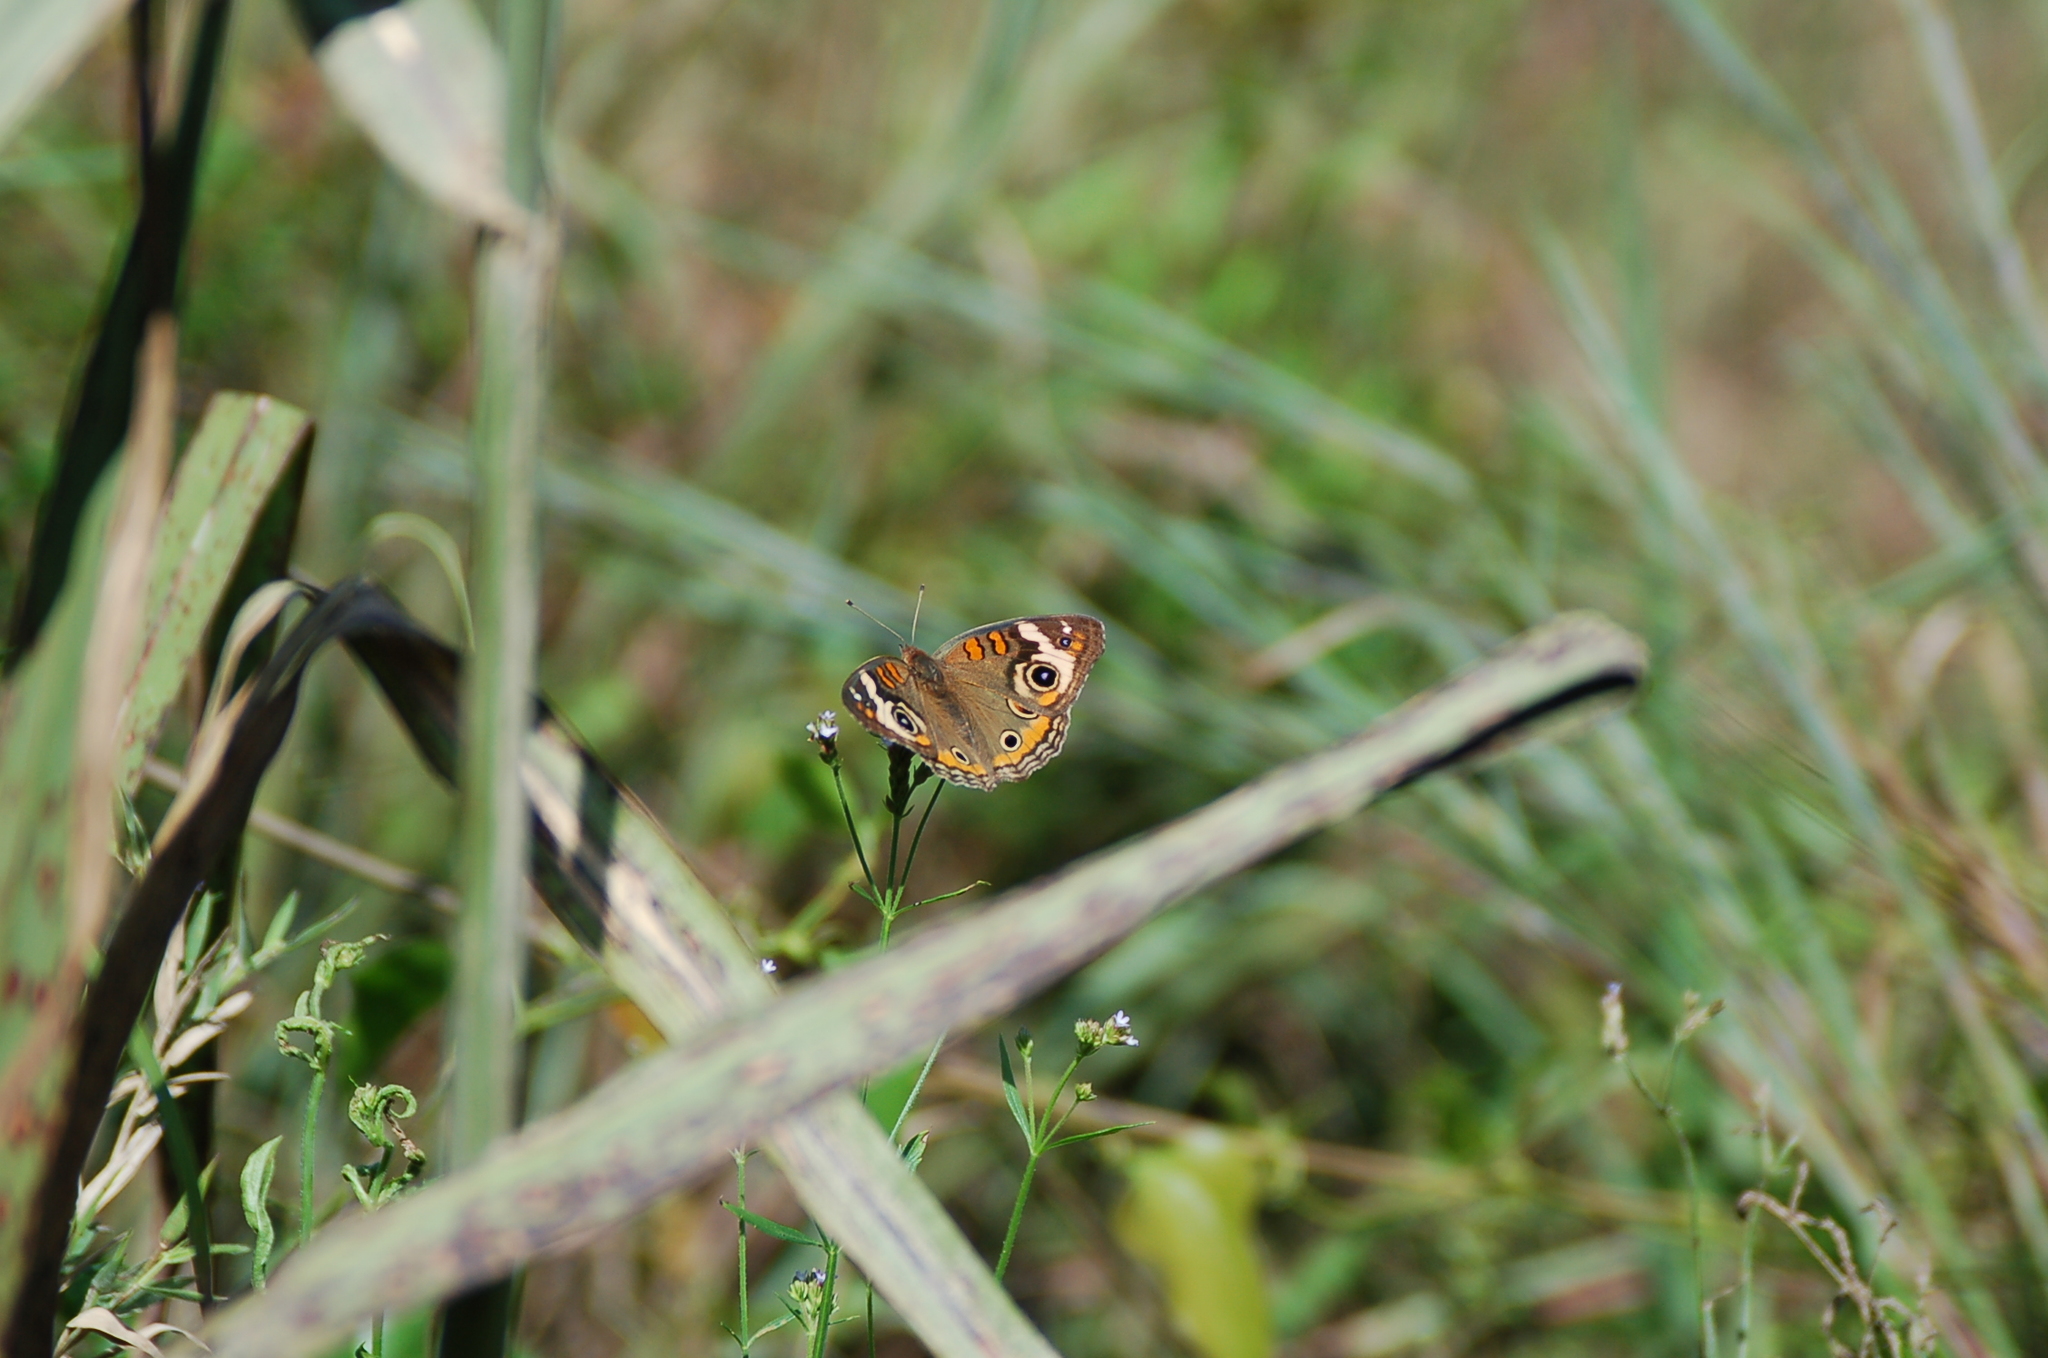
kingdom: Animalia
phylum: Arthropoda
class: Insecta
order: Lepidoptera
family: Nymphalidae
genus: Junonia
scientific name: Junonia coenia
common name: Common buckeye
